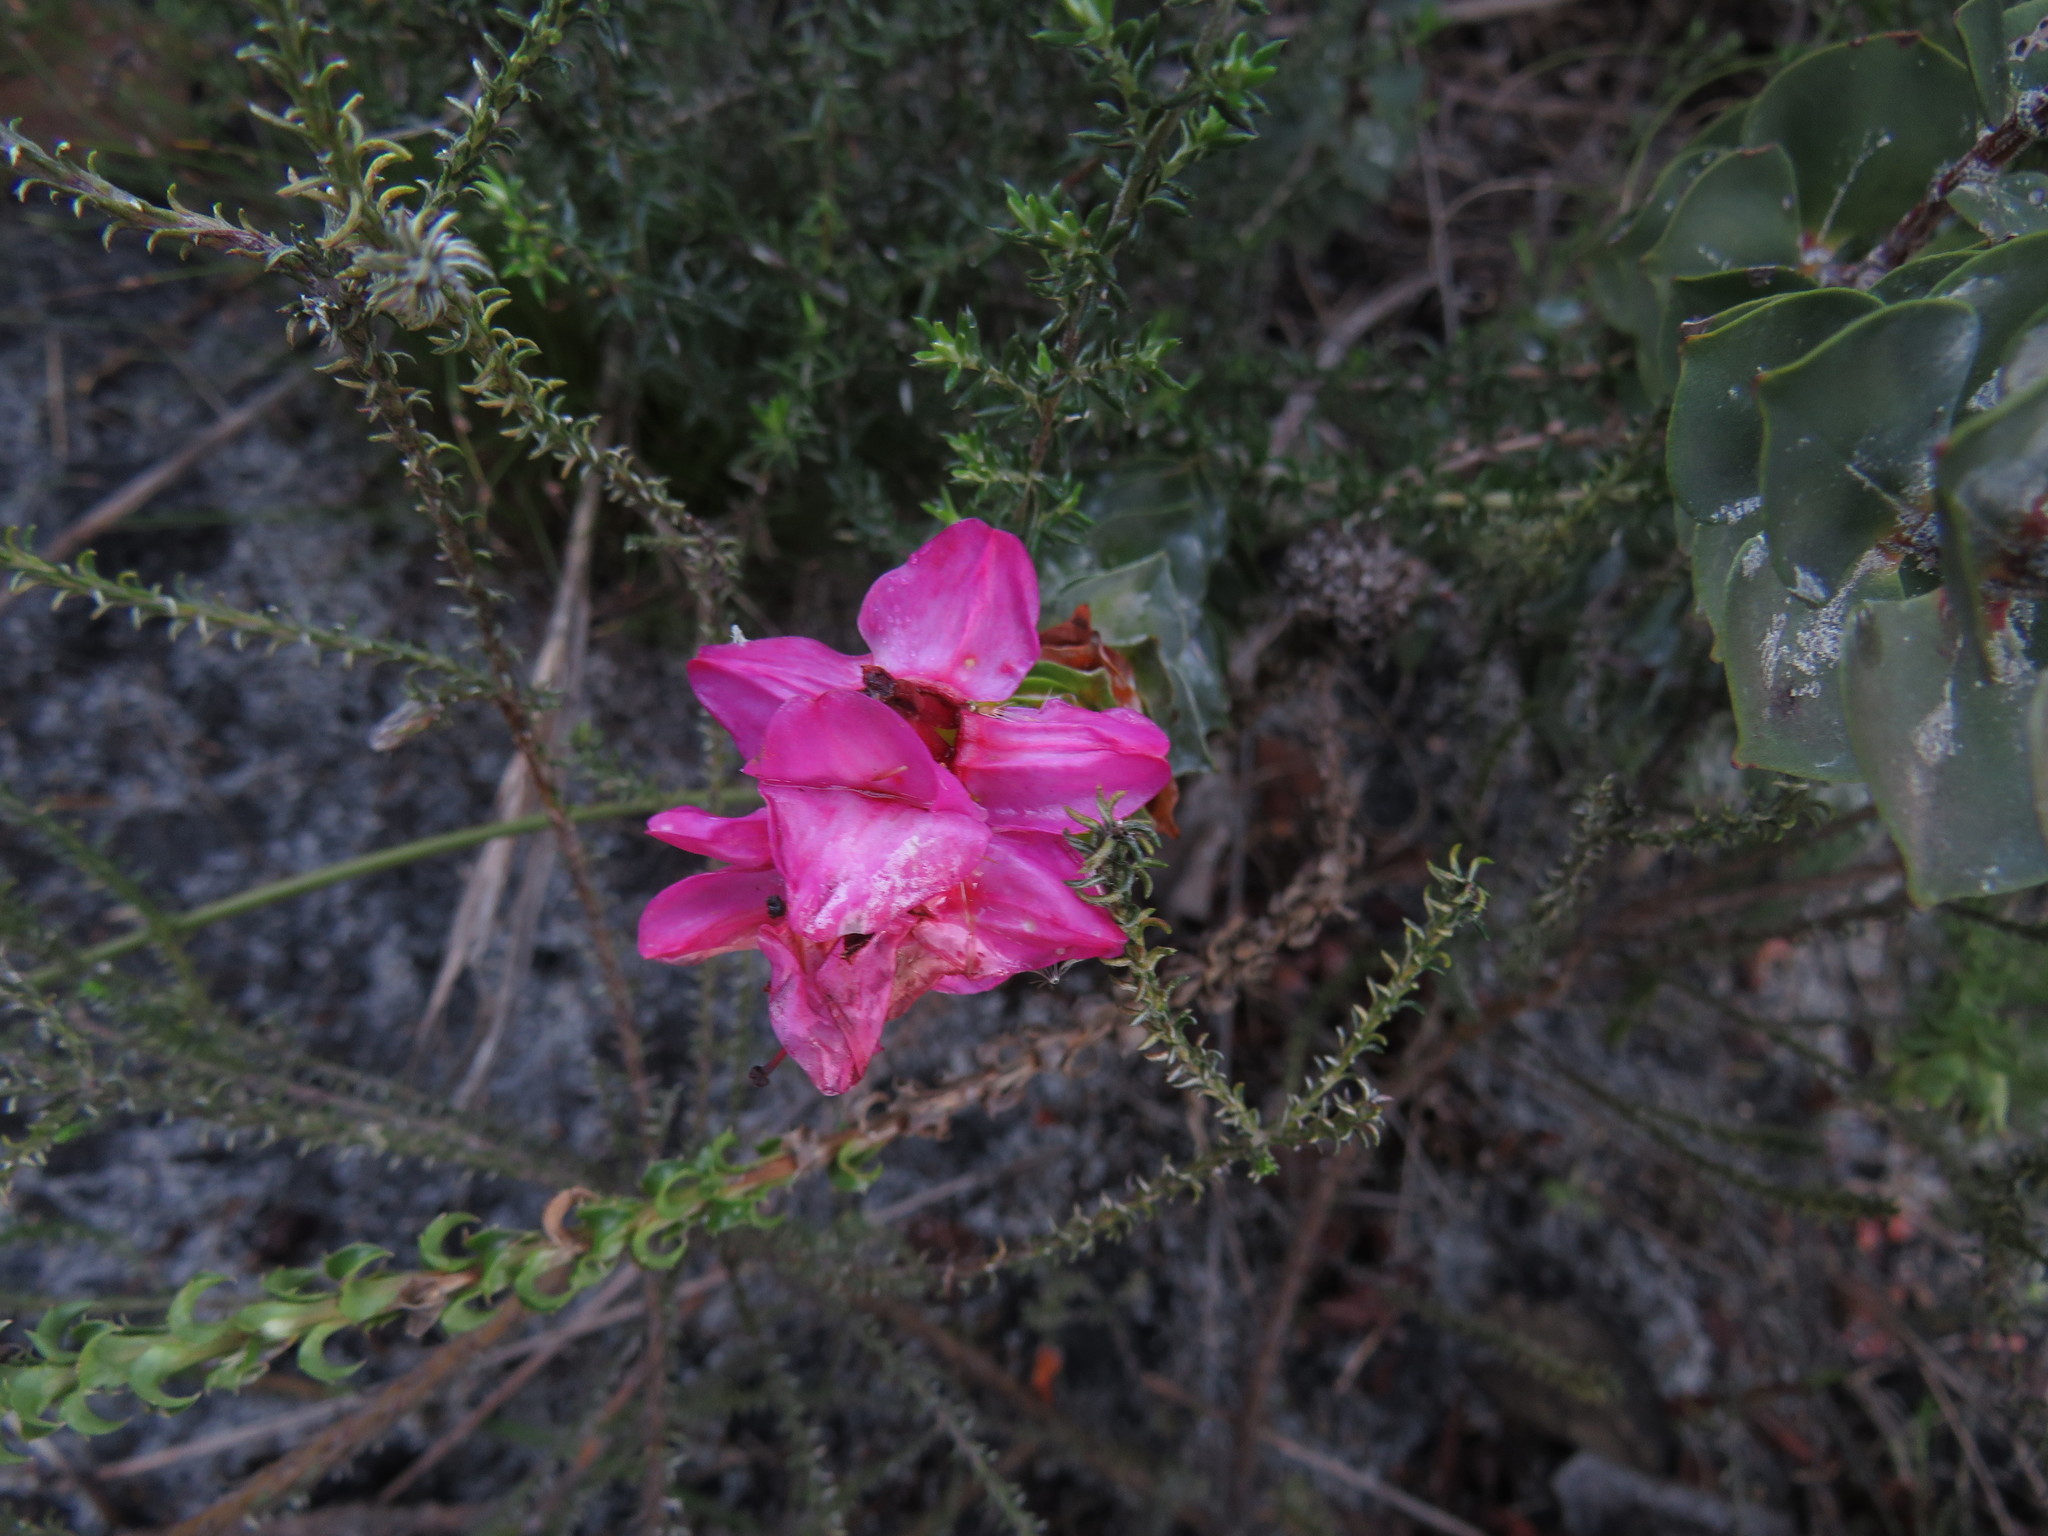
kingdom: Plantae
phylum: Tracheophyta
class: Magnoliopsida
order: Myrtales
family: Penaeaceae
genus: Saltera
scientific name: Saltera sarcocolla
